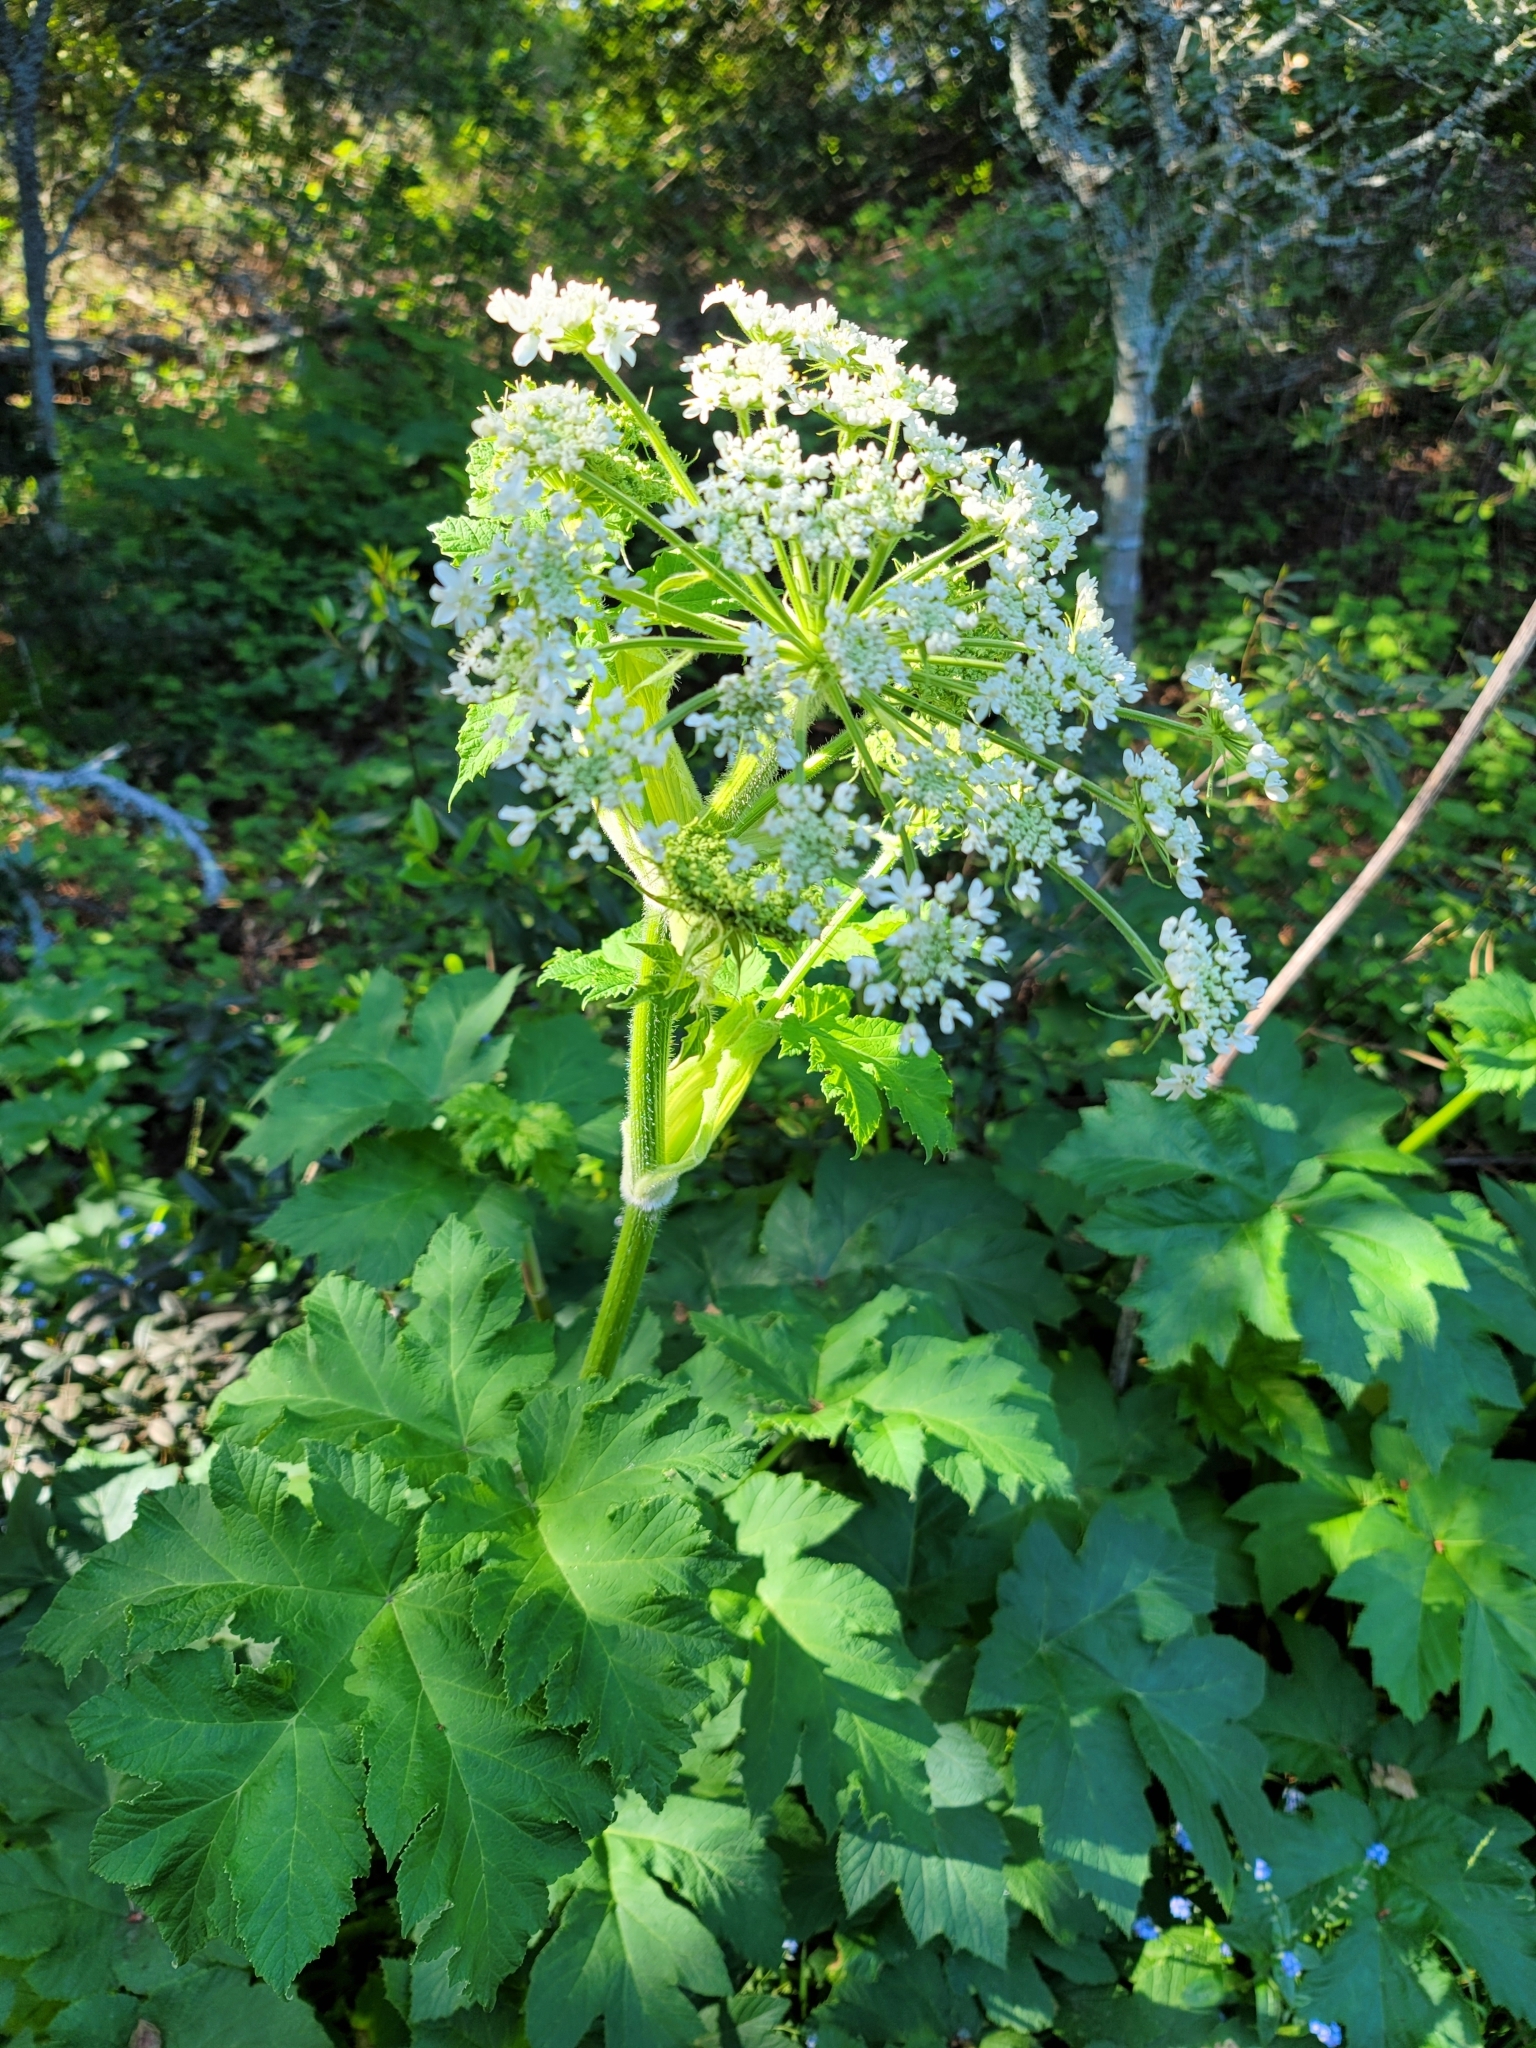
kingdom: Plantae
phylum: Tracheophyta
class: Magnoliopsida
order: Apiales
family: Apiaceae
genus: Heracleum
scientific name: Heracleum maximum
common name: American cow parsnip
